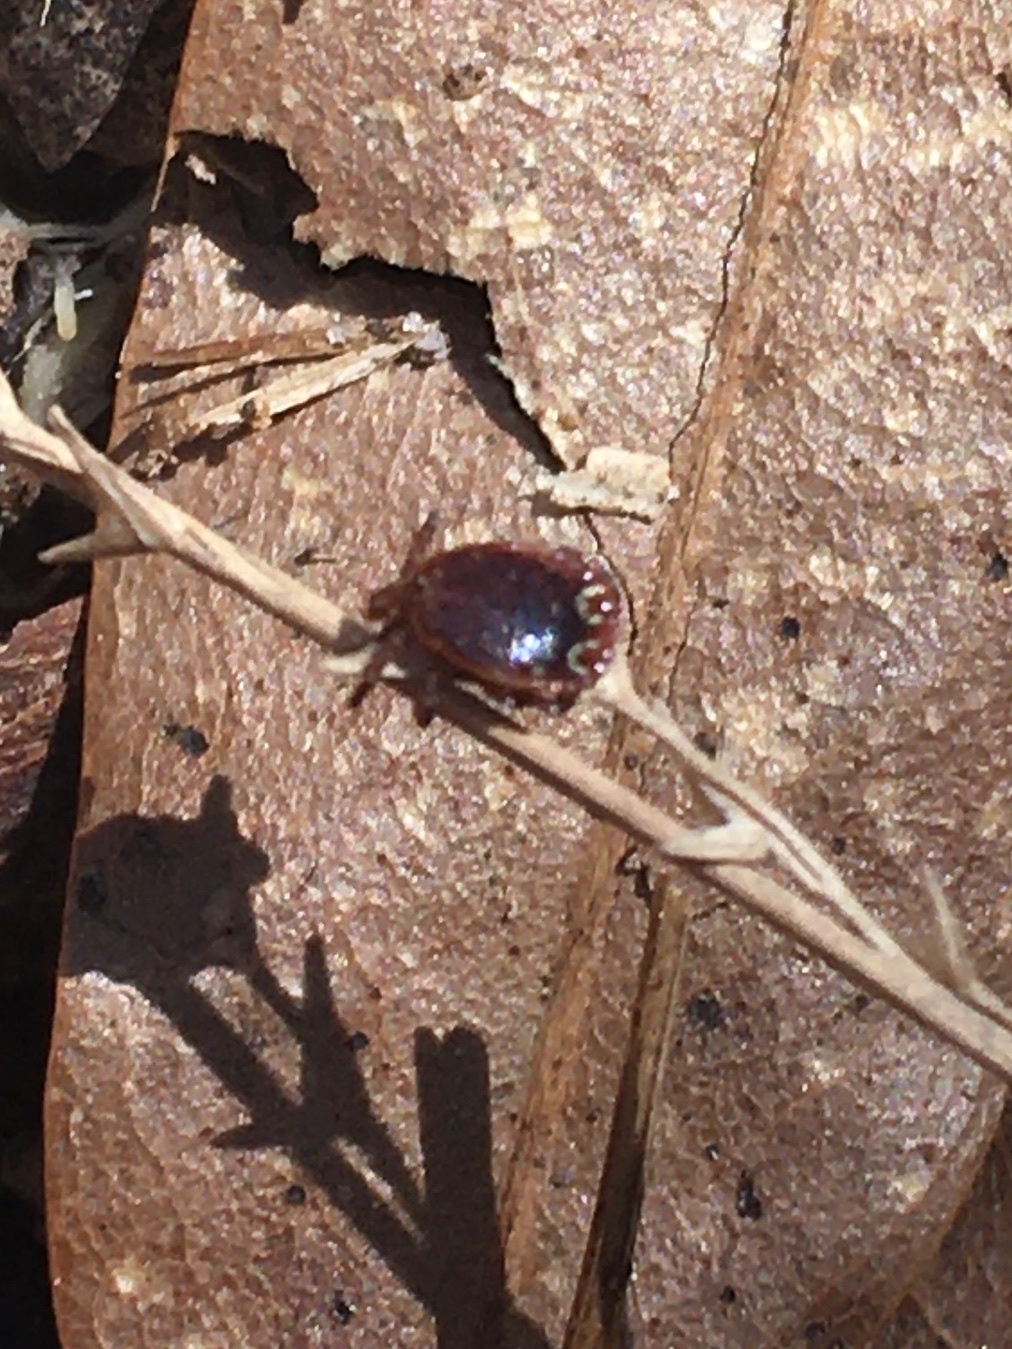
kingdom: Animalia
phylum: Arthropoda
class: Arachnida
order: Ixodida
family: Ixodidae
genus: Amblyomma
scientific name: Amblyomma americanum
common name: Lone star tick
